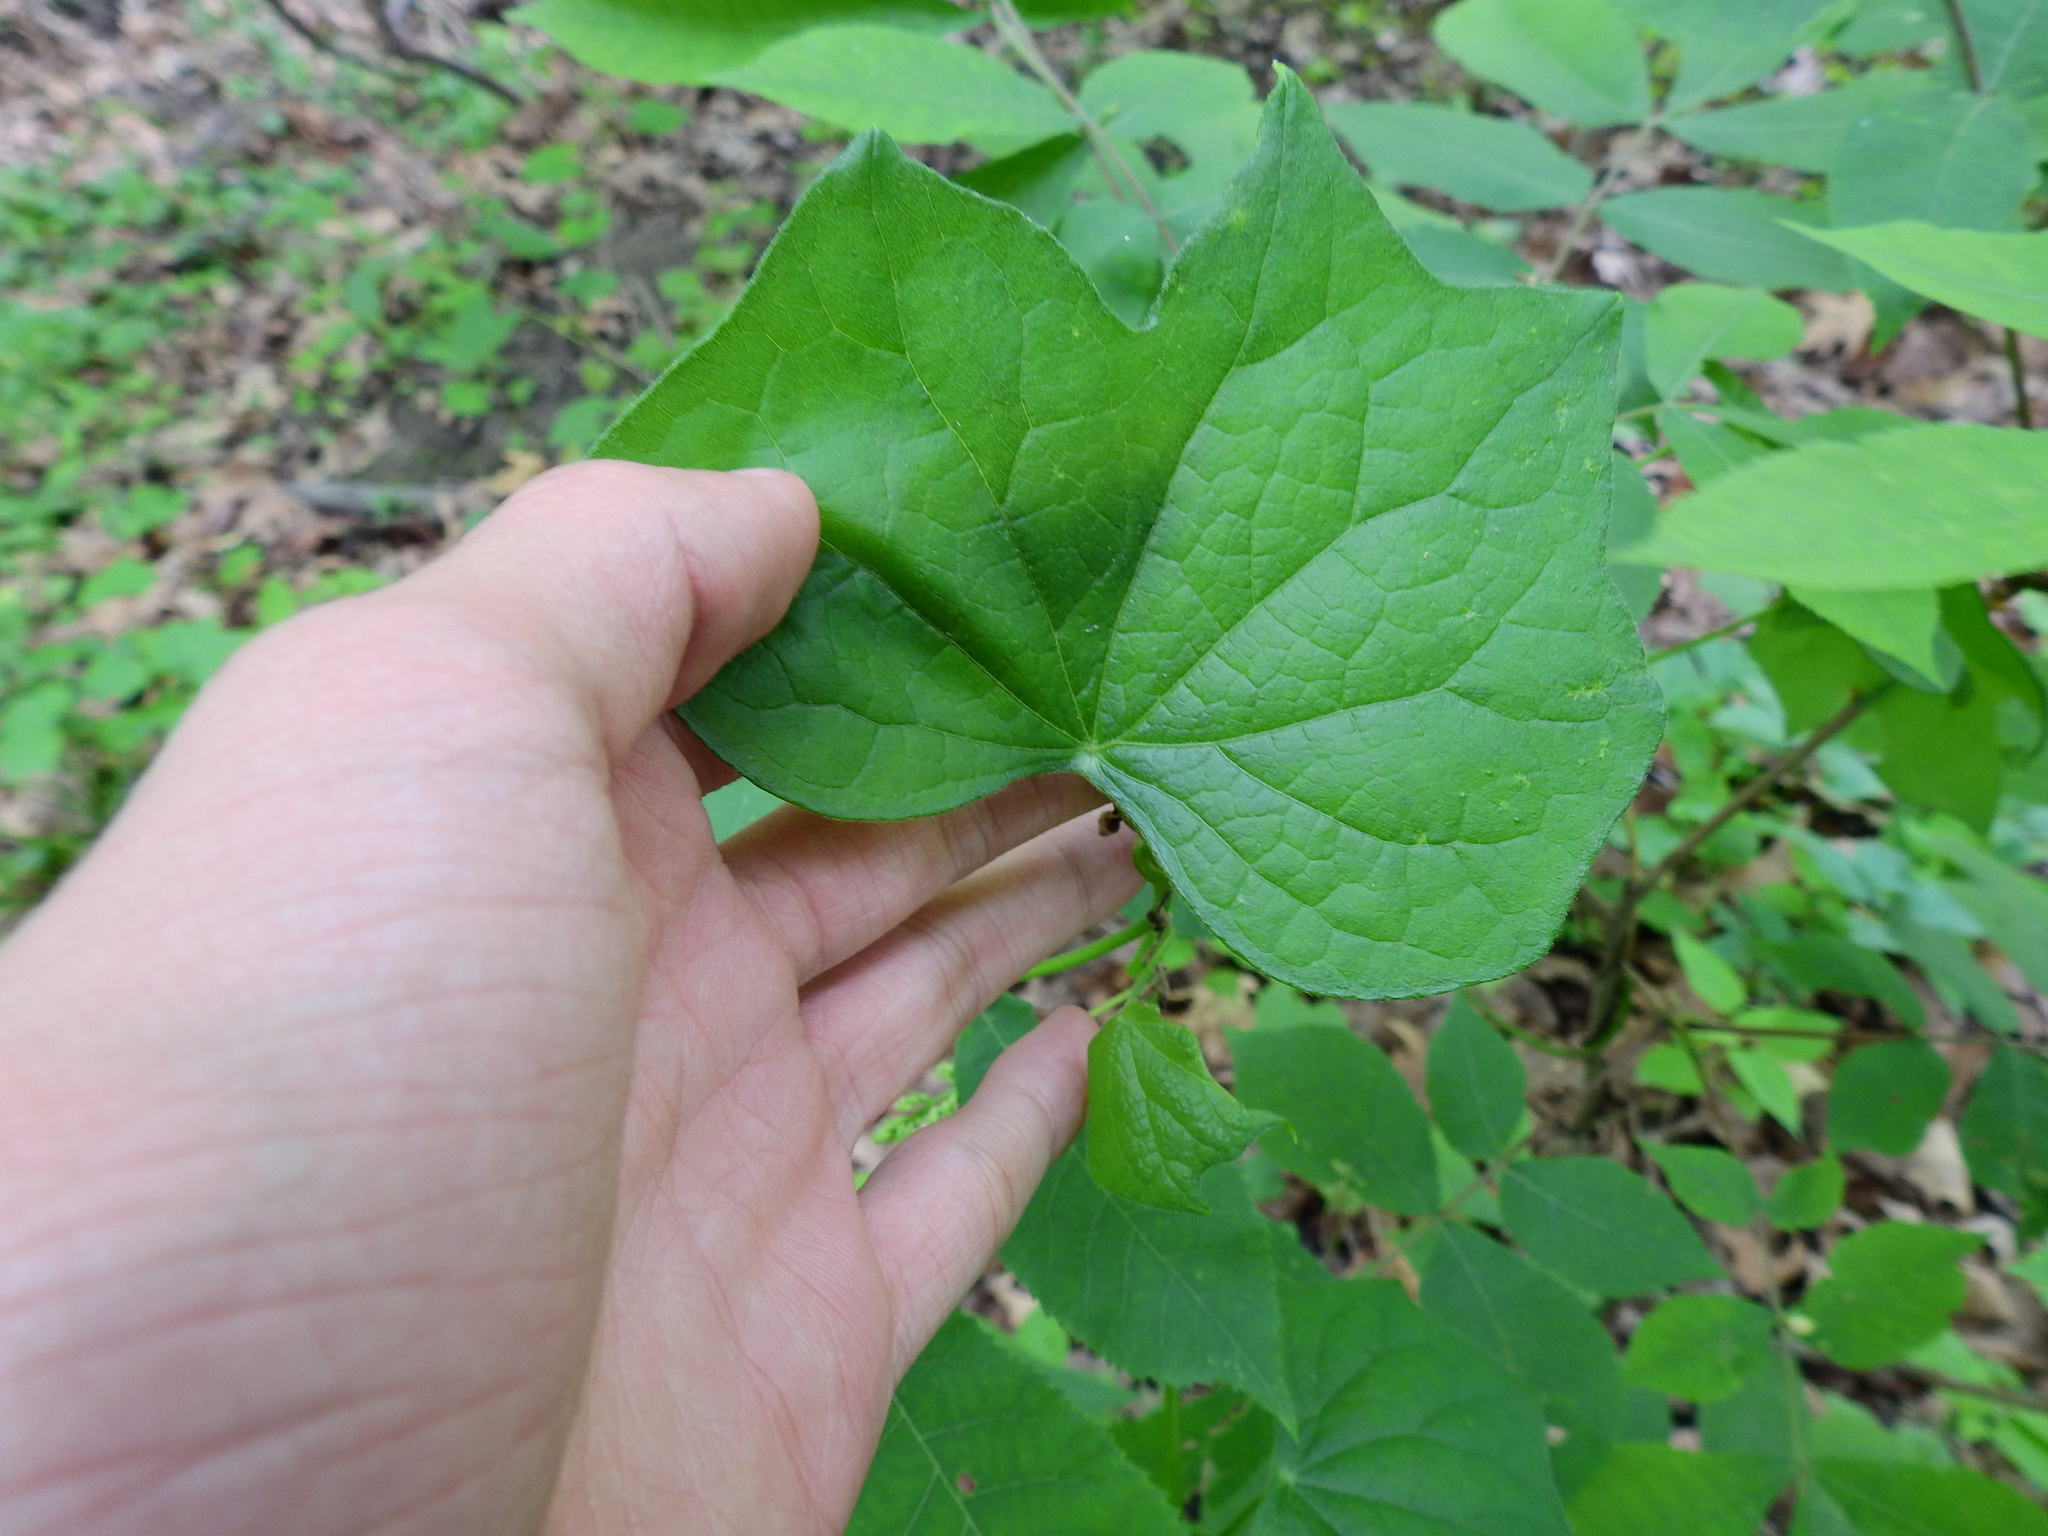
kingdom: Plantae
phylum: Tracheophyta
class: Magnoliopsida
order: Ranunculales
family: Menispermaceae
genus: Menispermum
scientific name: Menispermum canadense
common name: Moonseed
